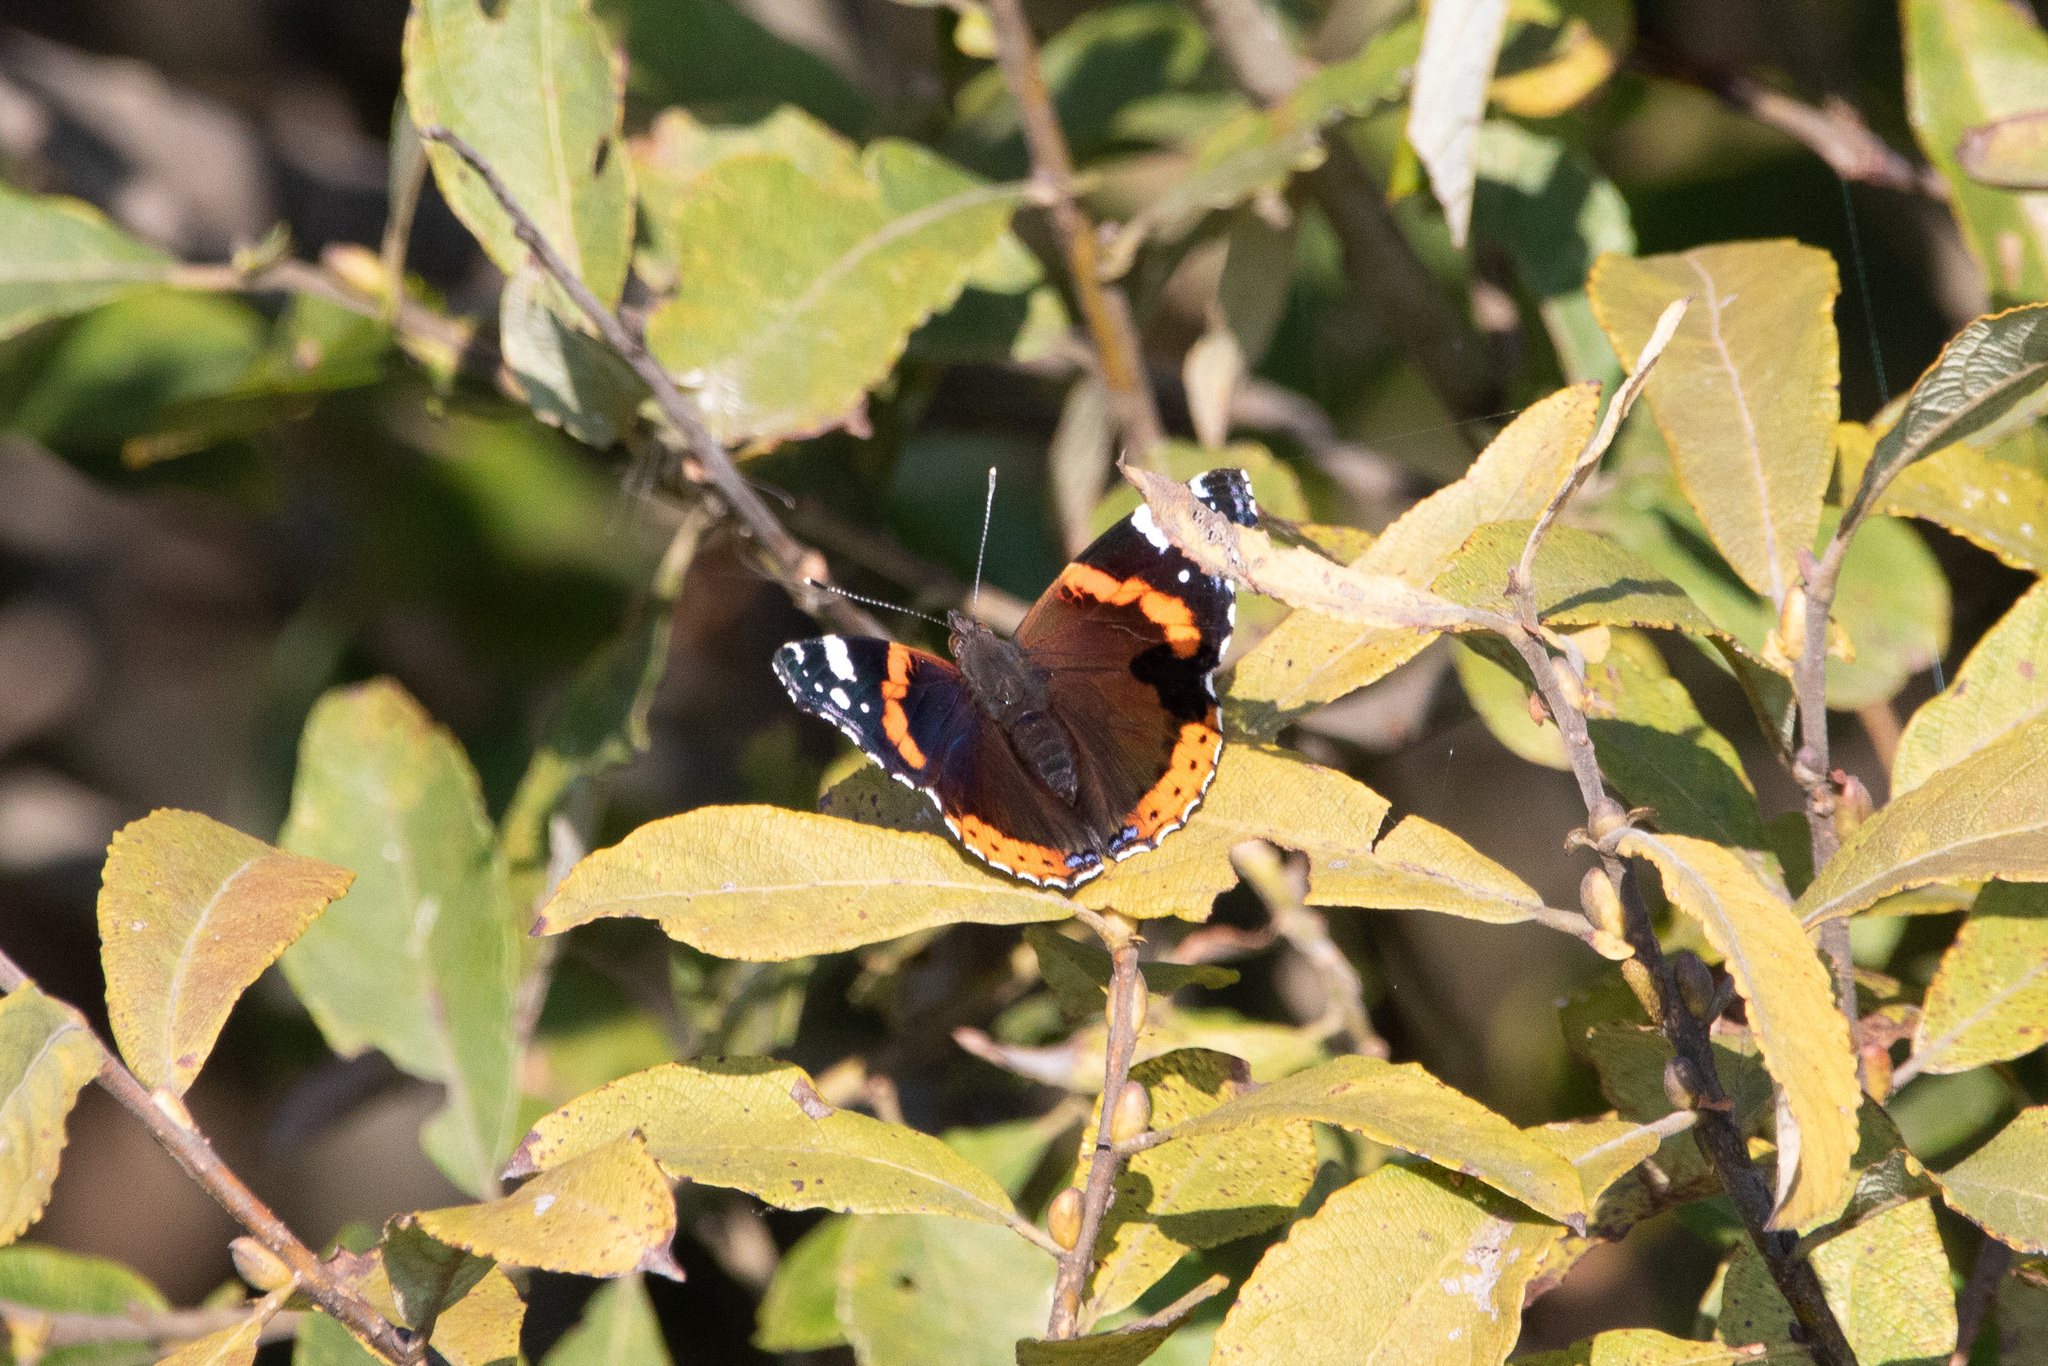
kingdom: Animalia
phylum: Arthropoda
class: Insecta
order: Lepidoptera
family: Nymphalidae
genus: Vanessa
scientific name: Vanessa atalanta
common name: Red admiral
